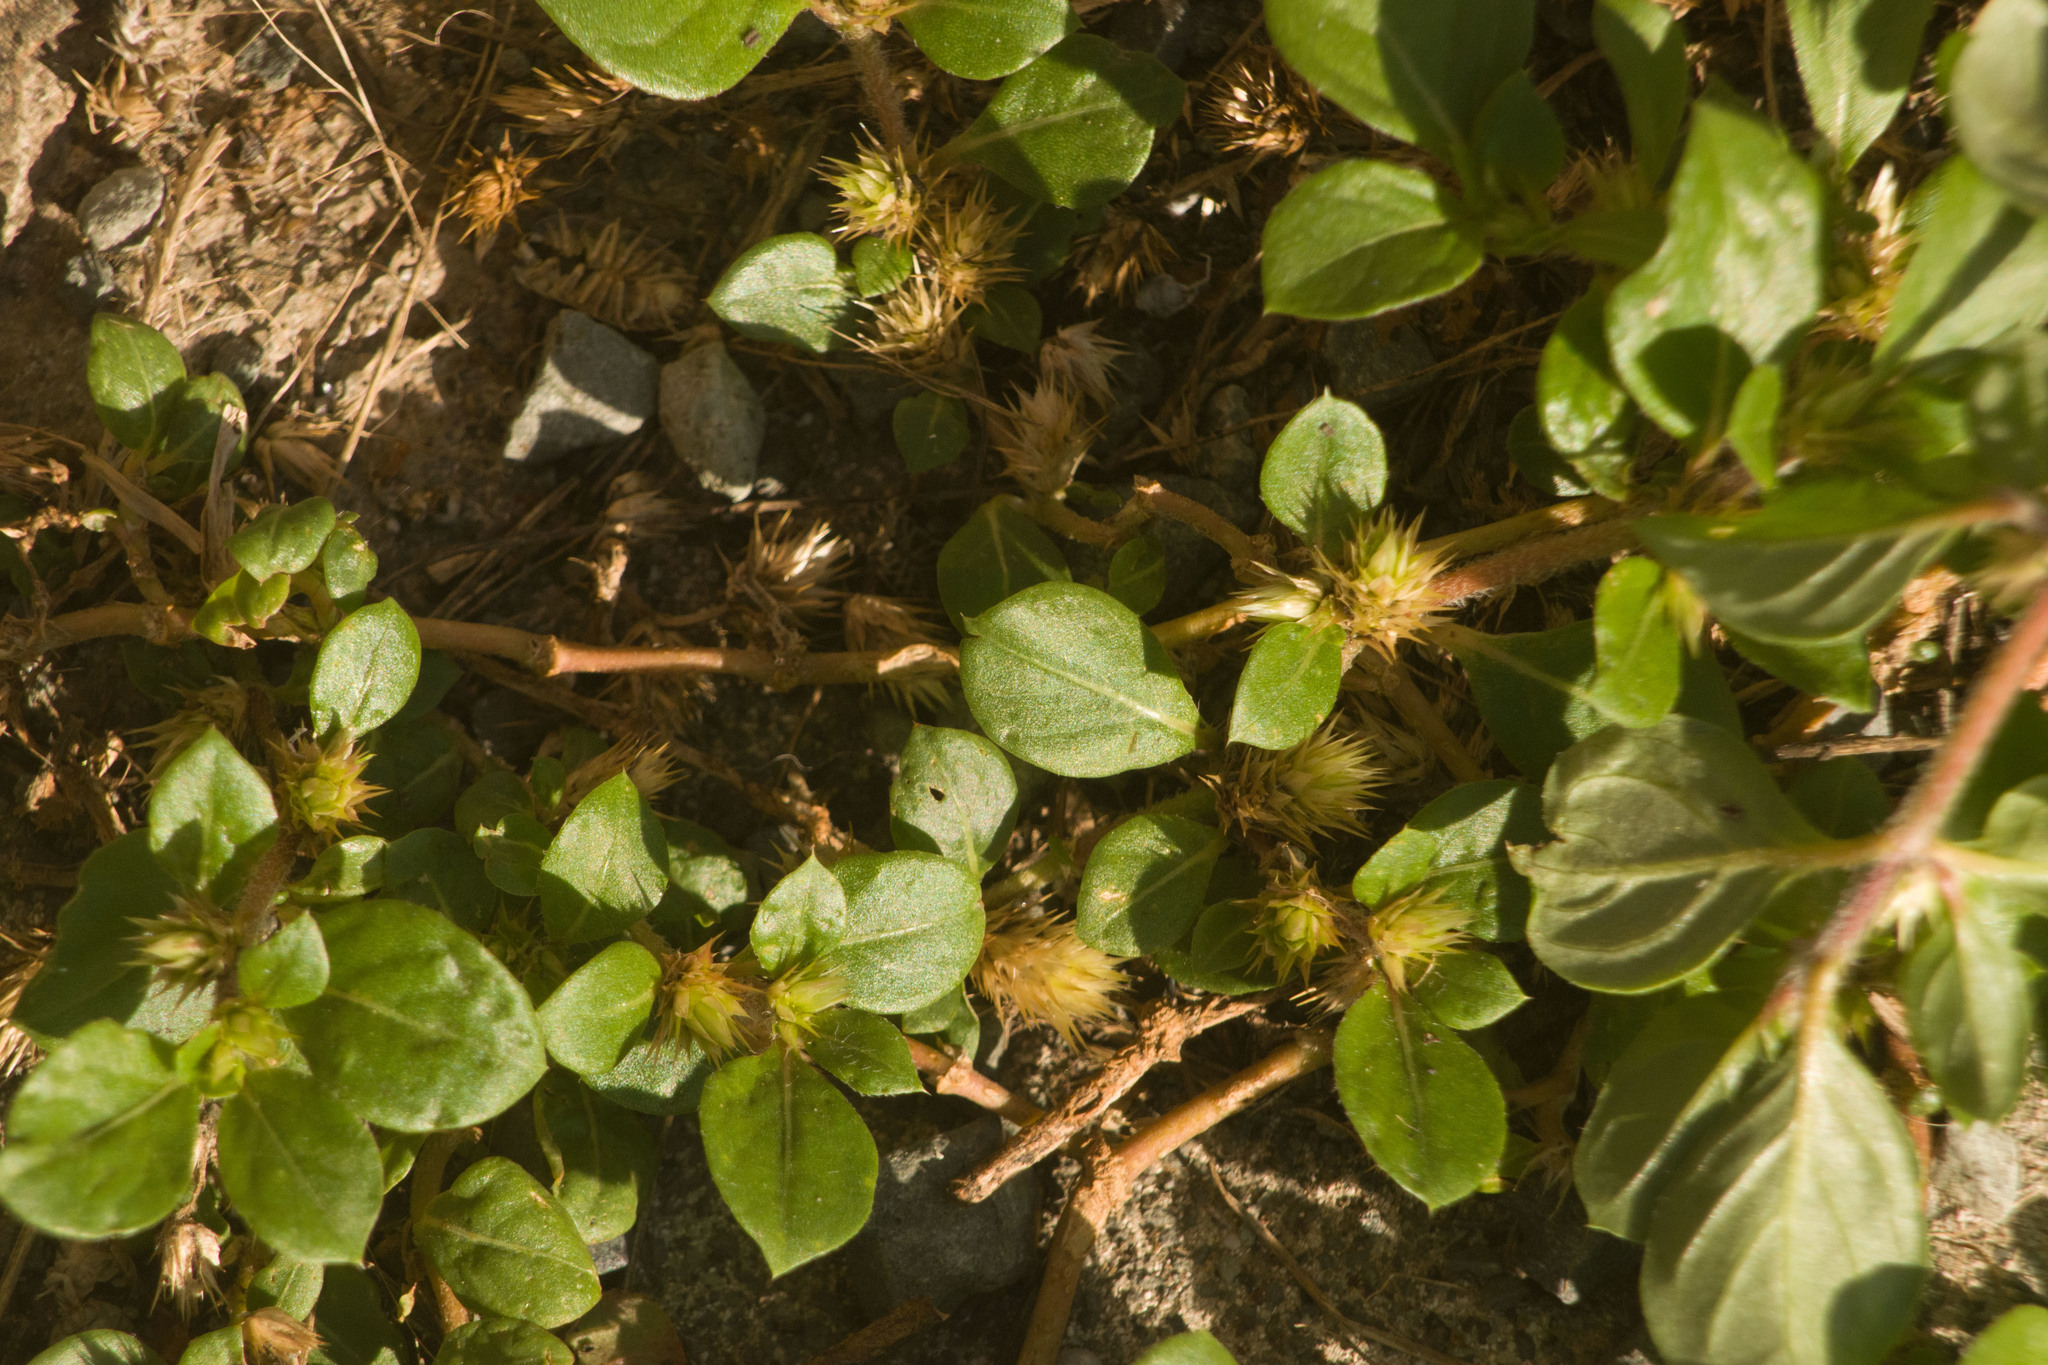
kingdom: Plantae
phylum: Tracheophyta
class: Magnoliopsida
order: Caryophyllales
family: Amaranthaceae
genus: Alternanthera
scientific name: Alternanthera pungens
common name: Khakiweed
